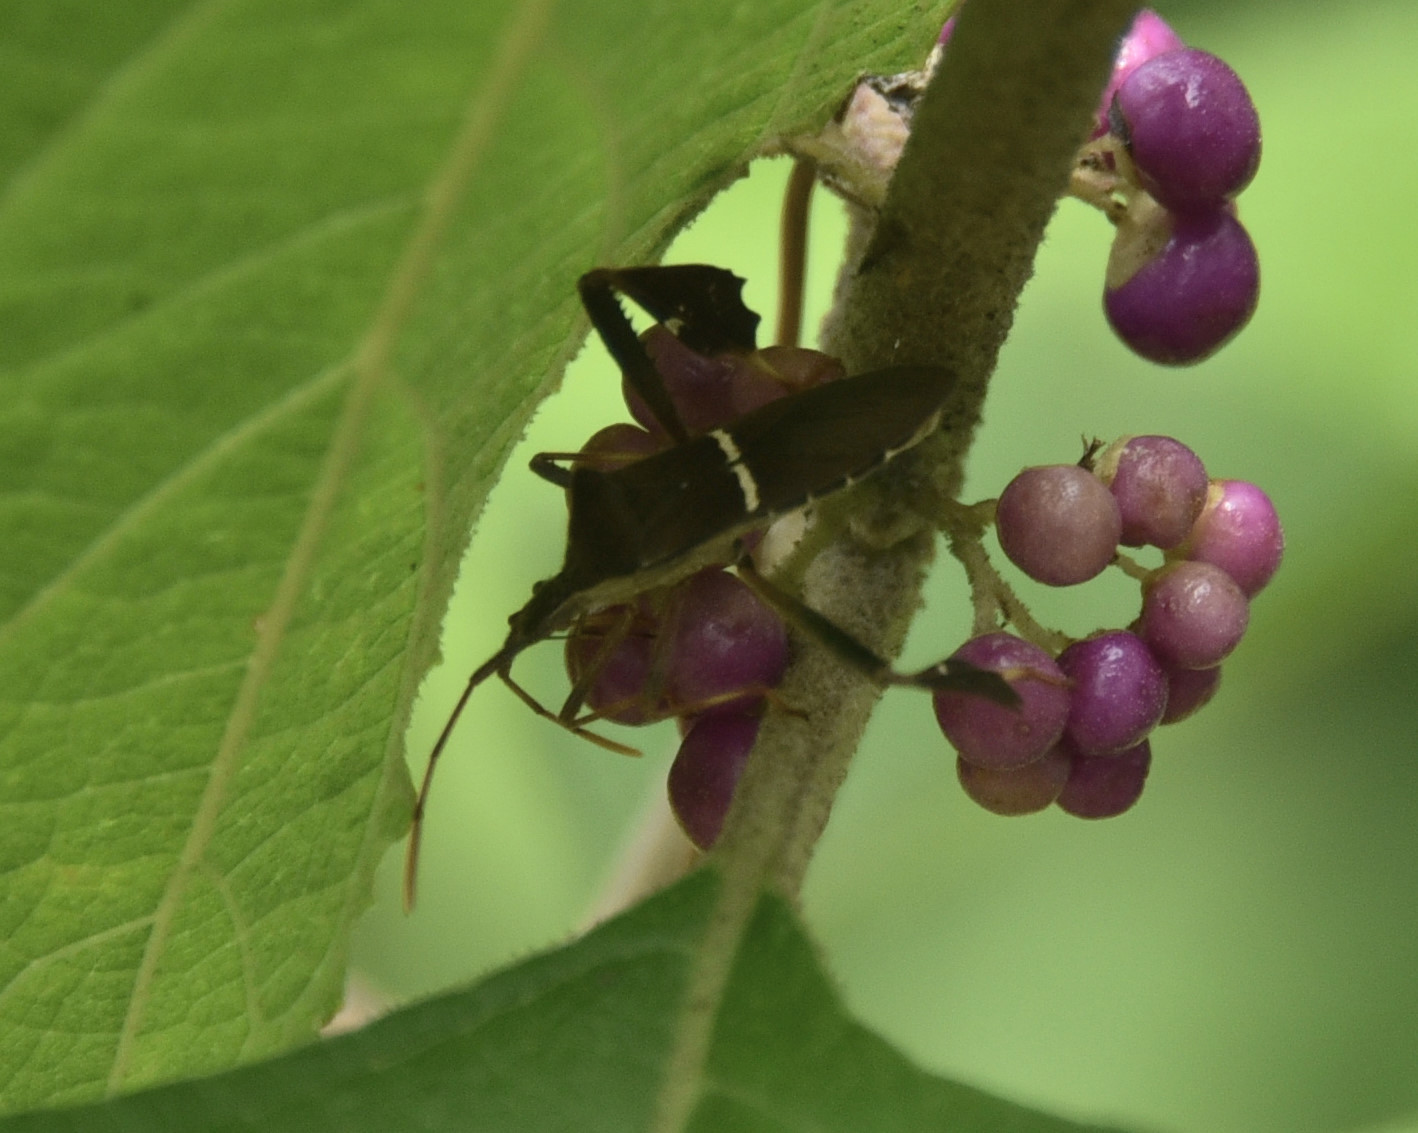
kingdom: Animalia
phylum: Arthropoda
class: Insecta
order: Hemiptera
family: Coreidae
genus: Leptoglossus
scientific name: Leptoglossus phyllopus
